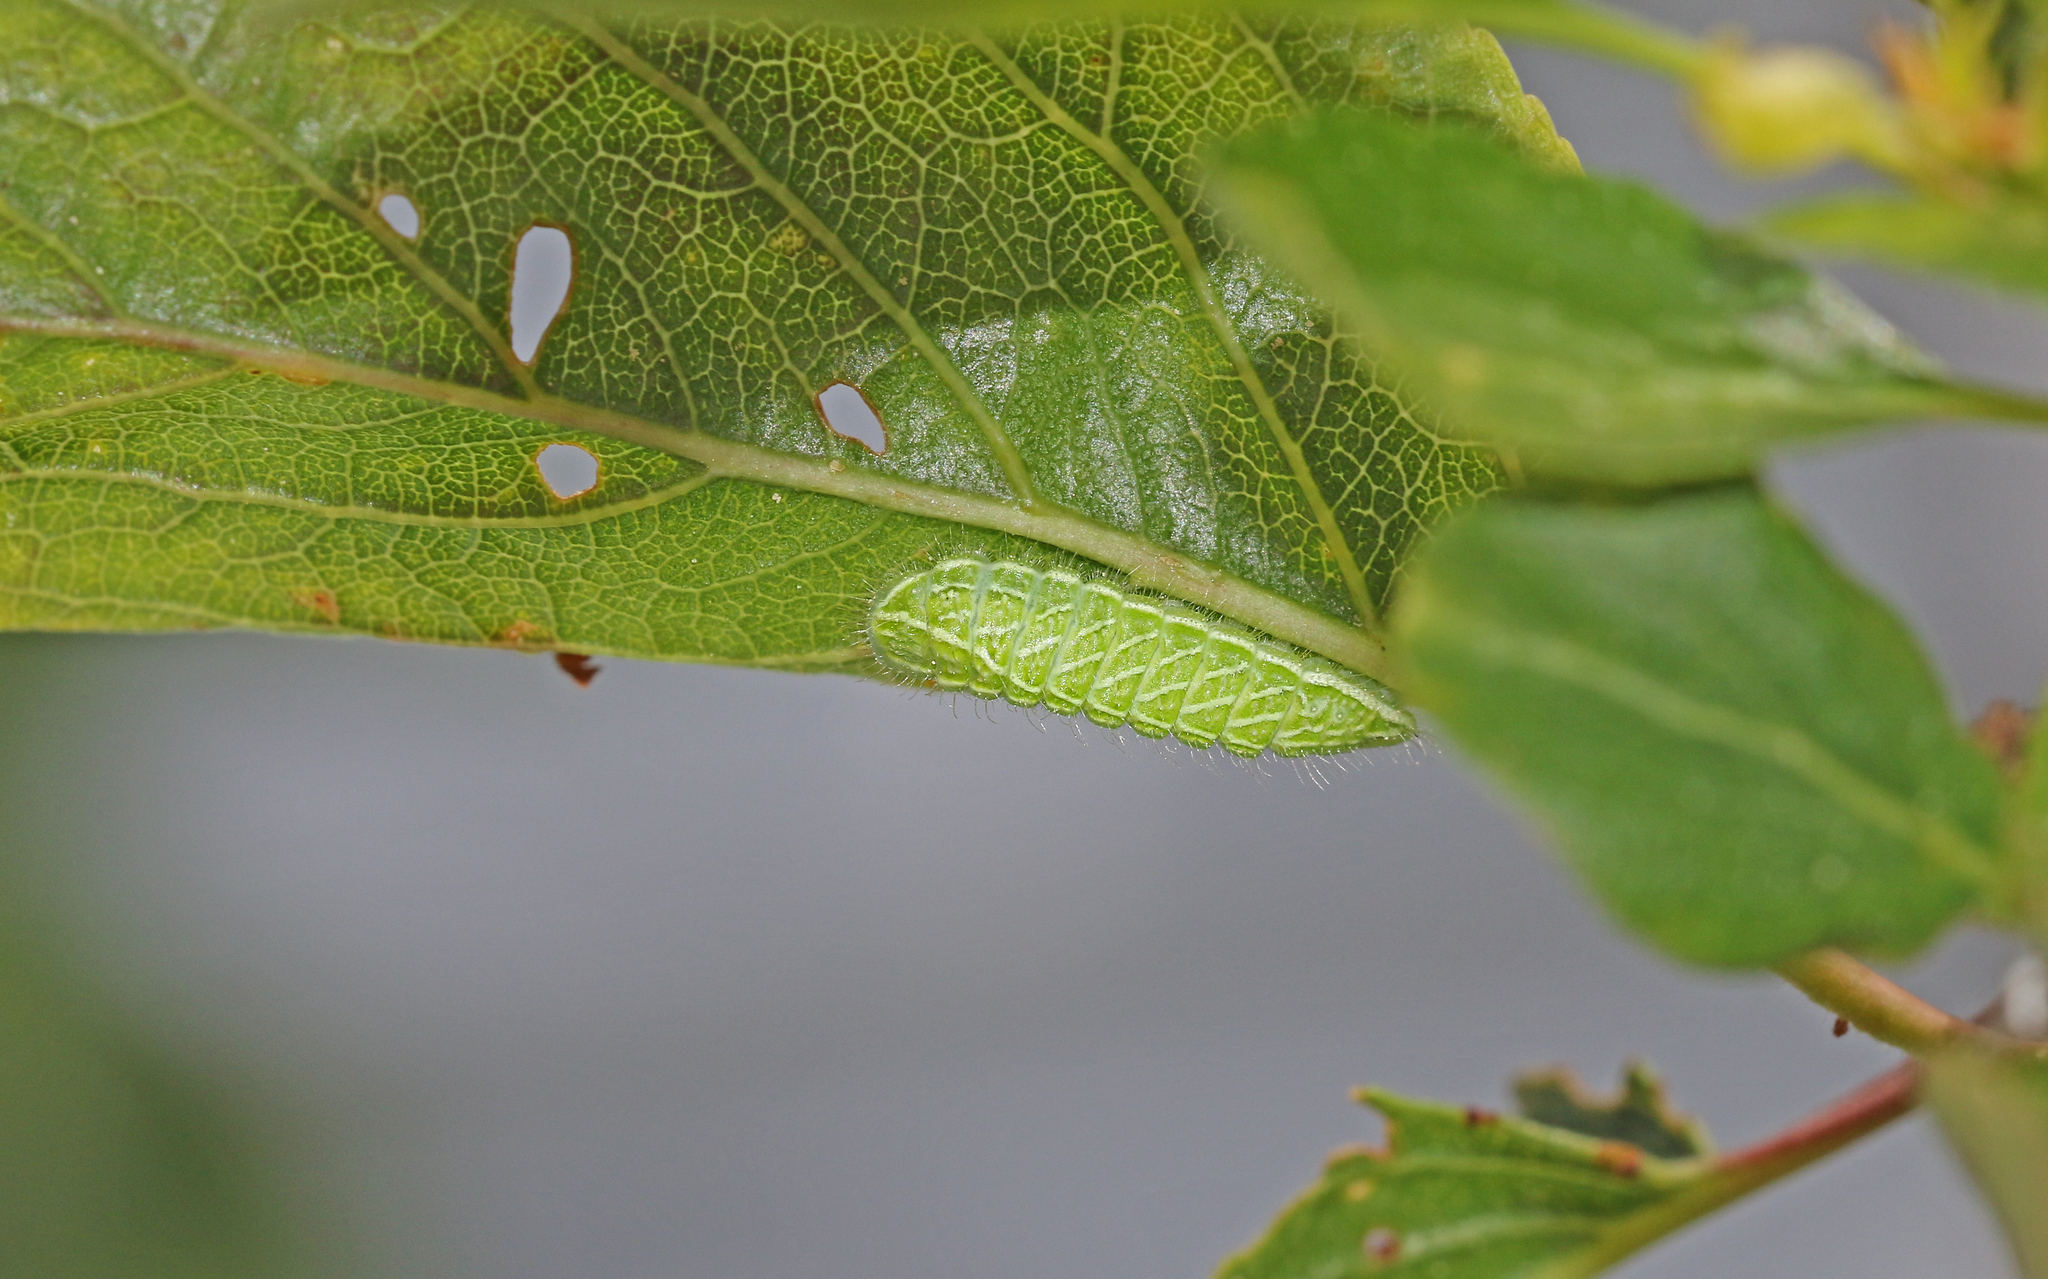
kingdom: Animalia
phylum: Arthropoda
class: Insecta
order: Lepidoptera
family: Lycaenidae
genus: Thecla
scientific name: Thecla betulae
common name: Brown hairstreak
